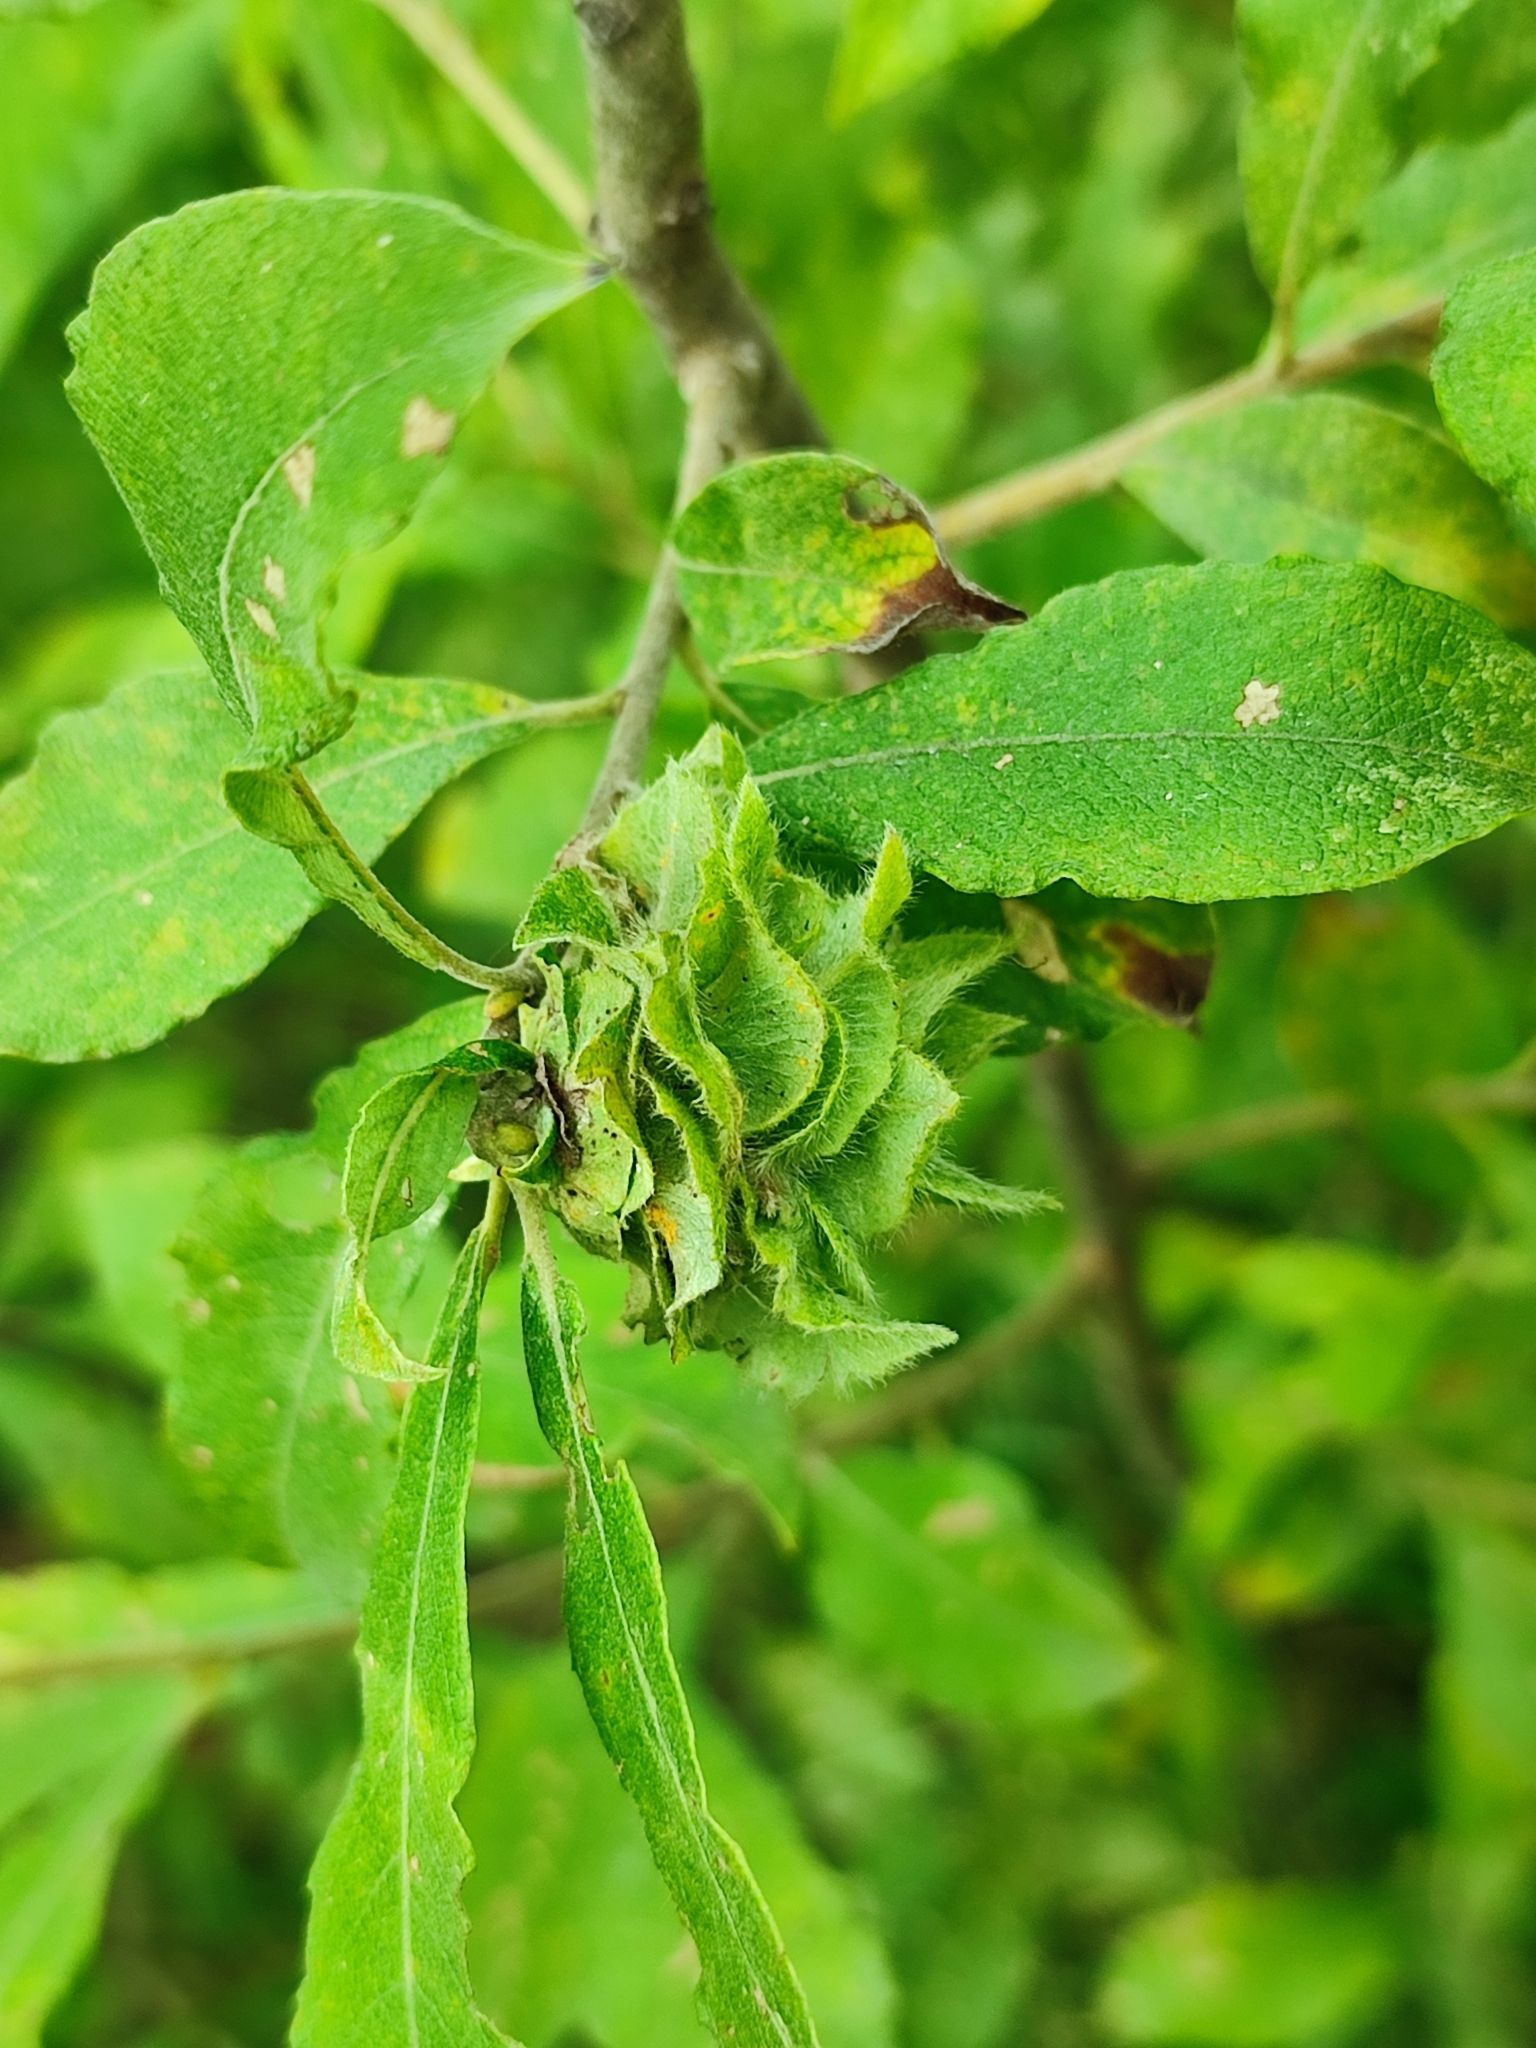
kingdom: Animalia
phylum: Arthropoda
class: Insecta
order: Diptera
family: Cecidomyiidae
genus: Rabdophaga
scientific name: Rabdophaga rosaria
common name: Willow rose gall midge
